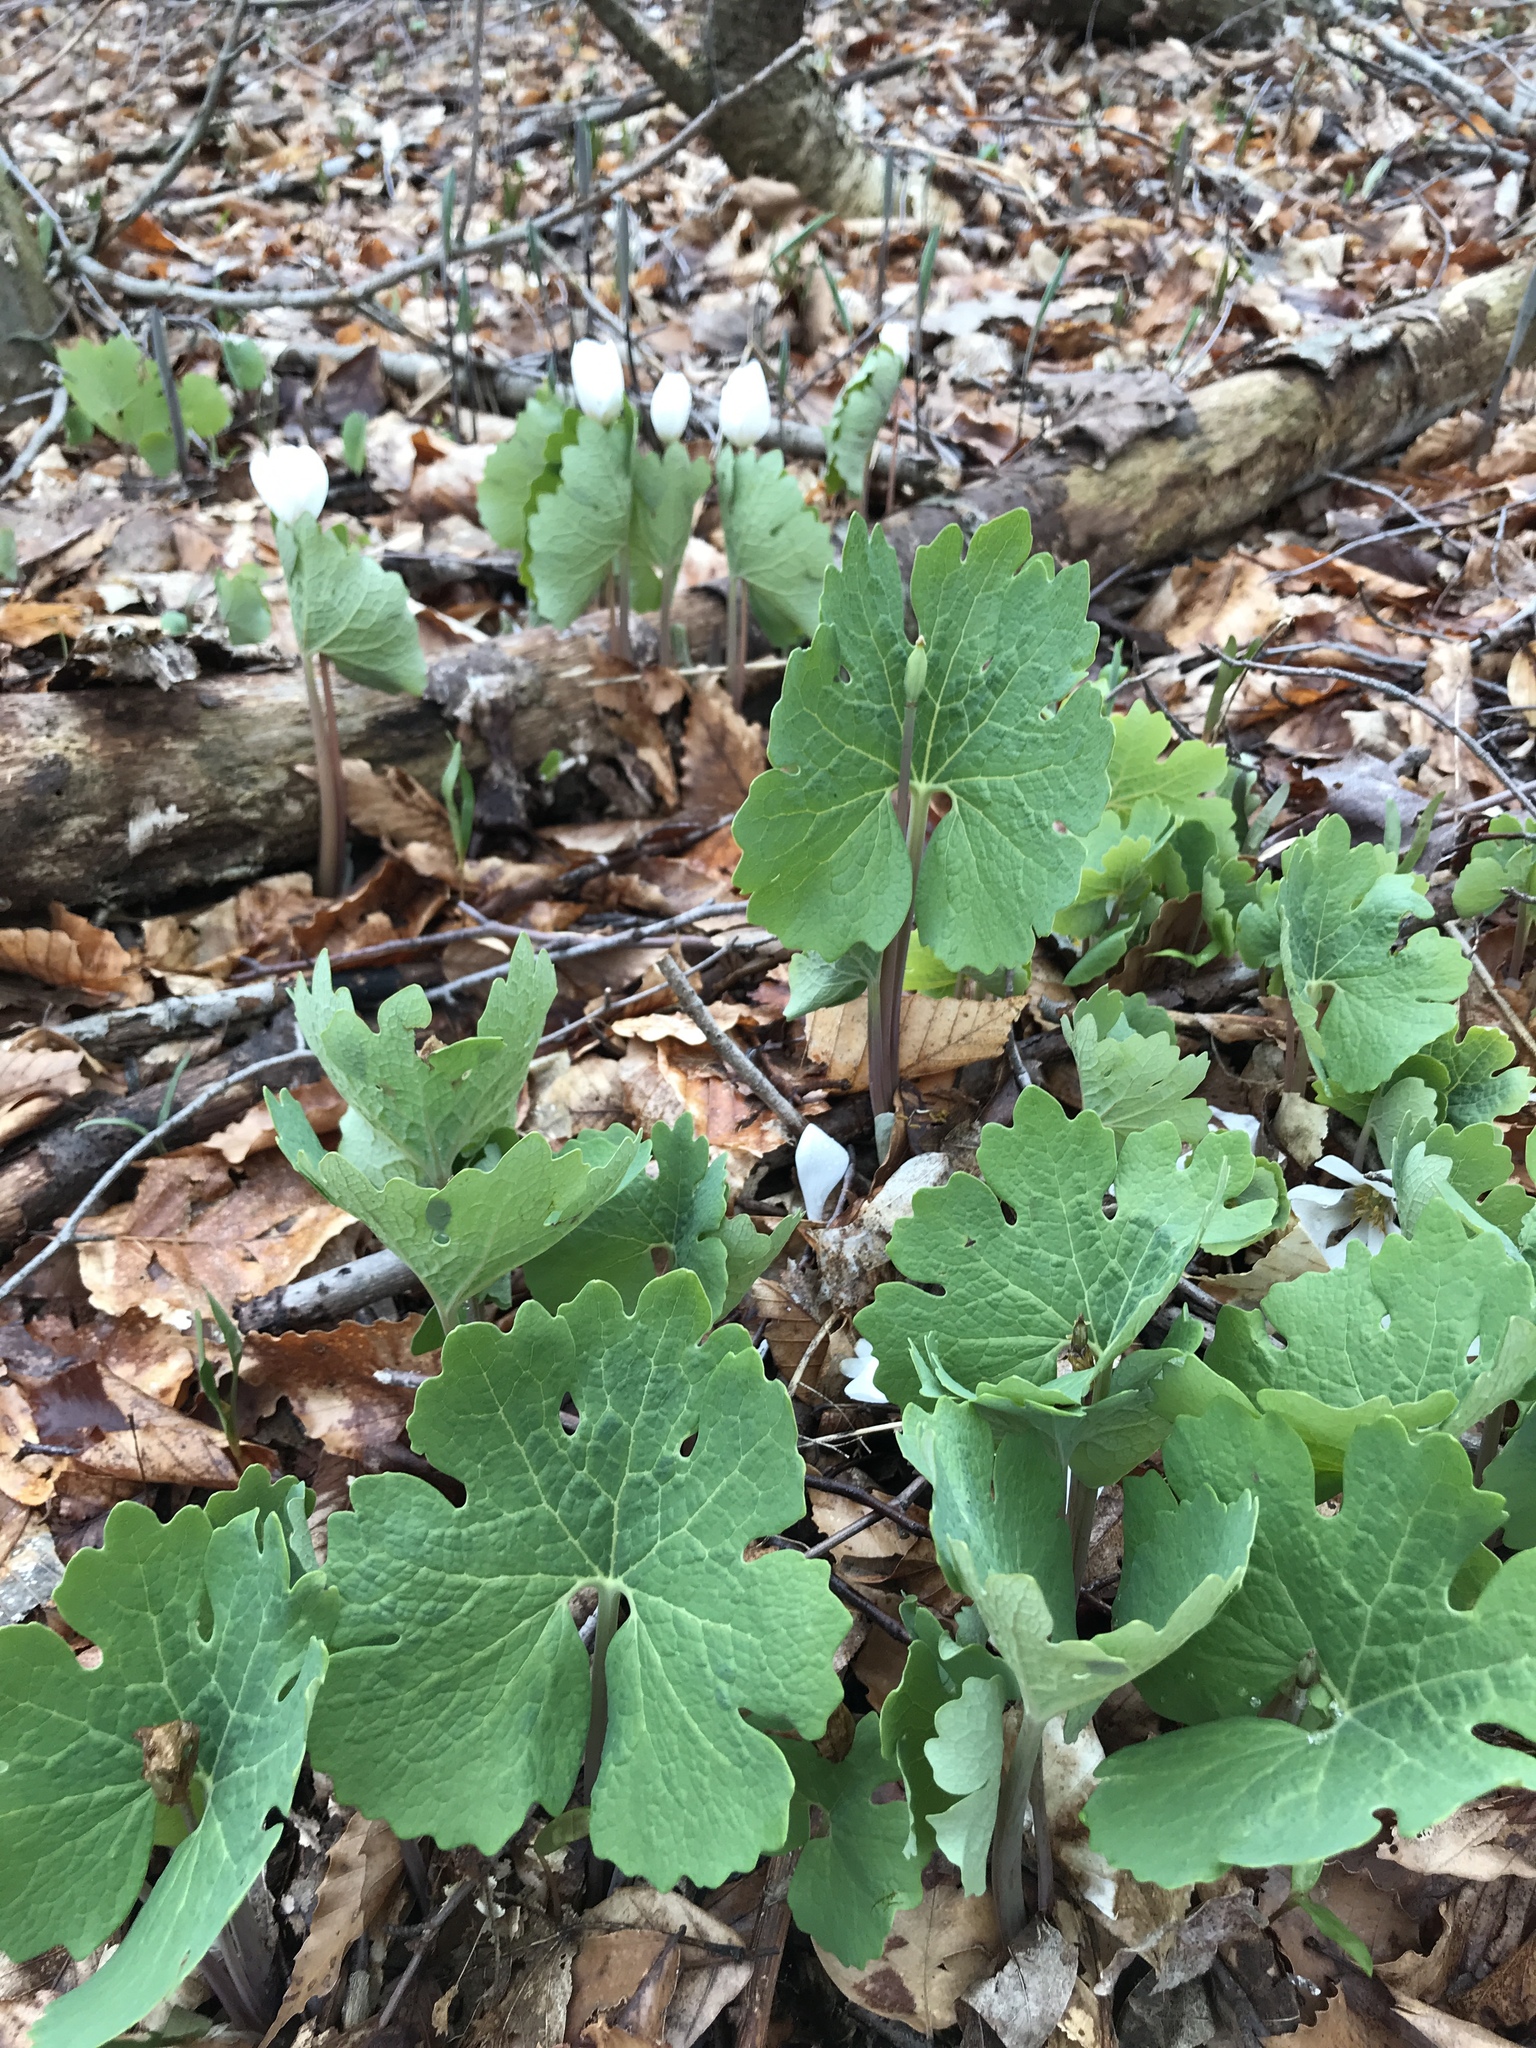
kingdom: Plantae
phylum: Tracheophyta
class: Magnoliopsida
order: Ranunculales
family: Papaveraceae
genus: Sanguinaria
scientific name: Sanguinaria canadensis
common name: Bloodroot
